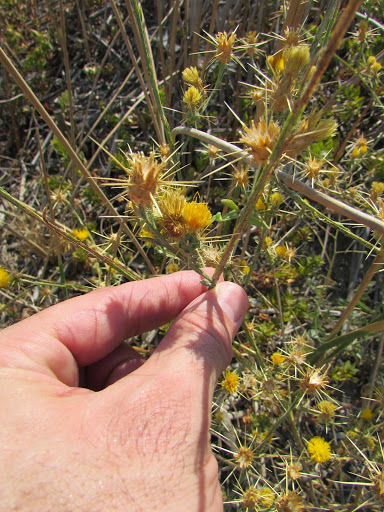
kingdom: Plantae
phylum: Tracheophyta
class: Magnoliopsida
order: Asterales
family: Asteraceae
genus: Centaurea
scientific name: Centaurea solstitialis
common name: Yellow star-thistle
